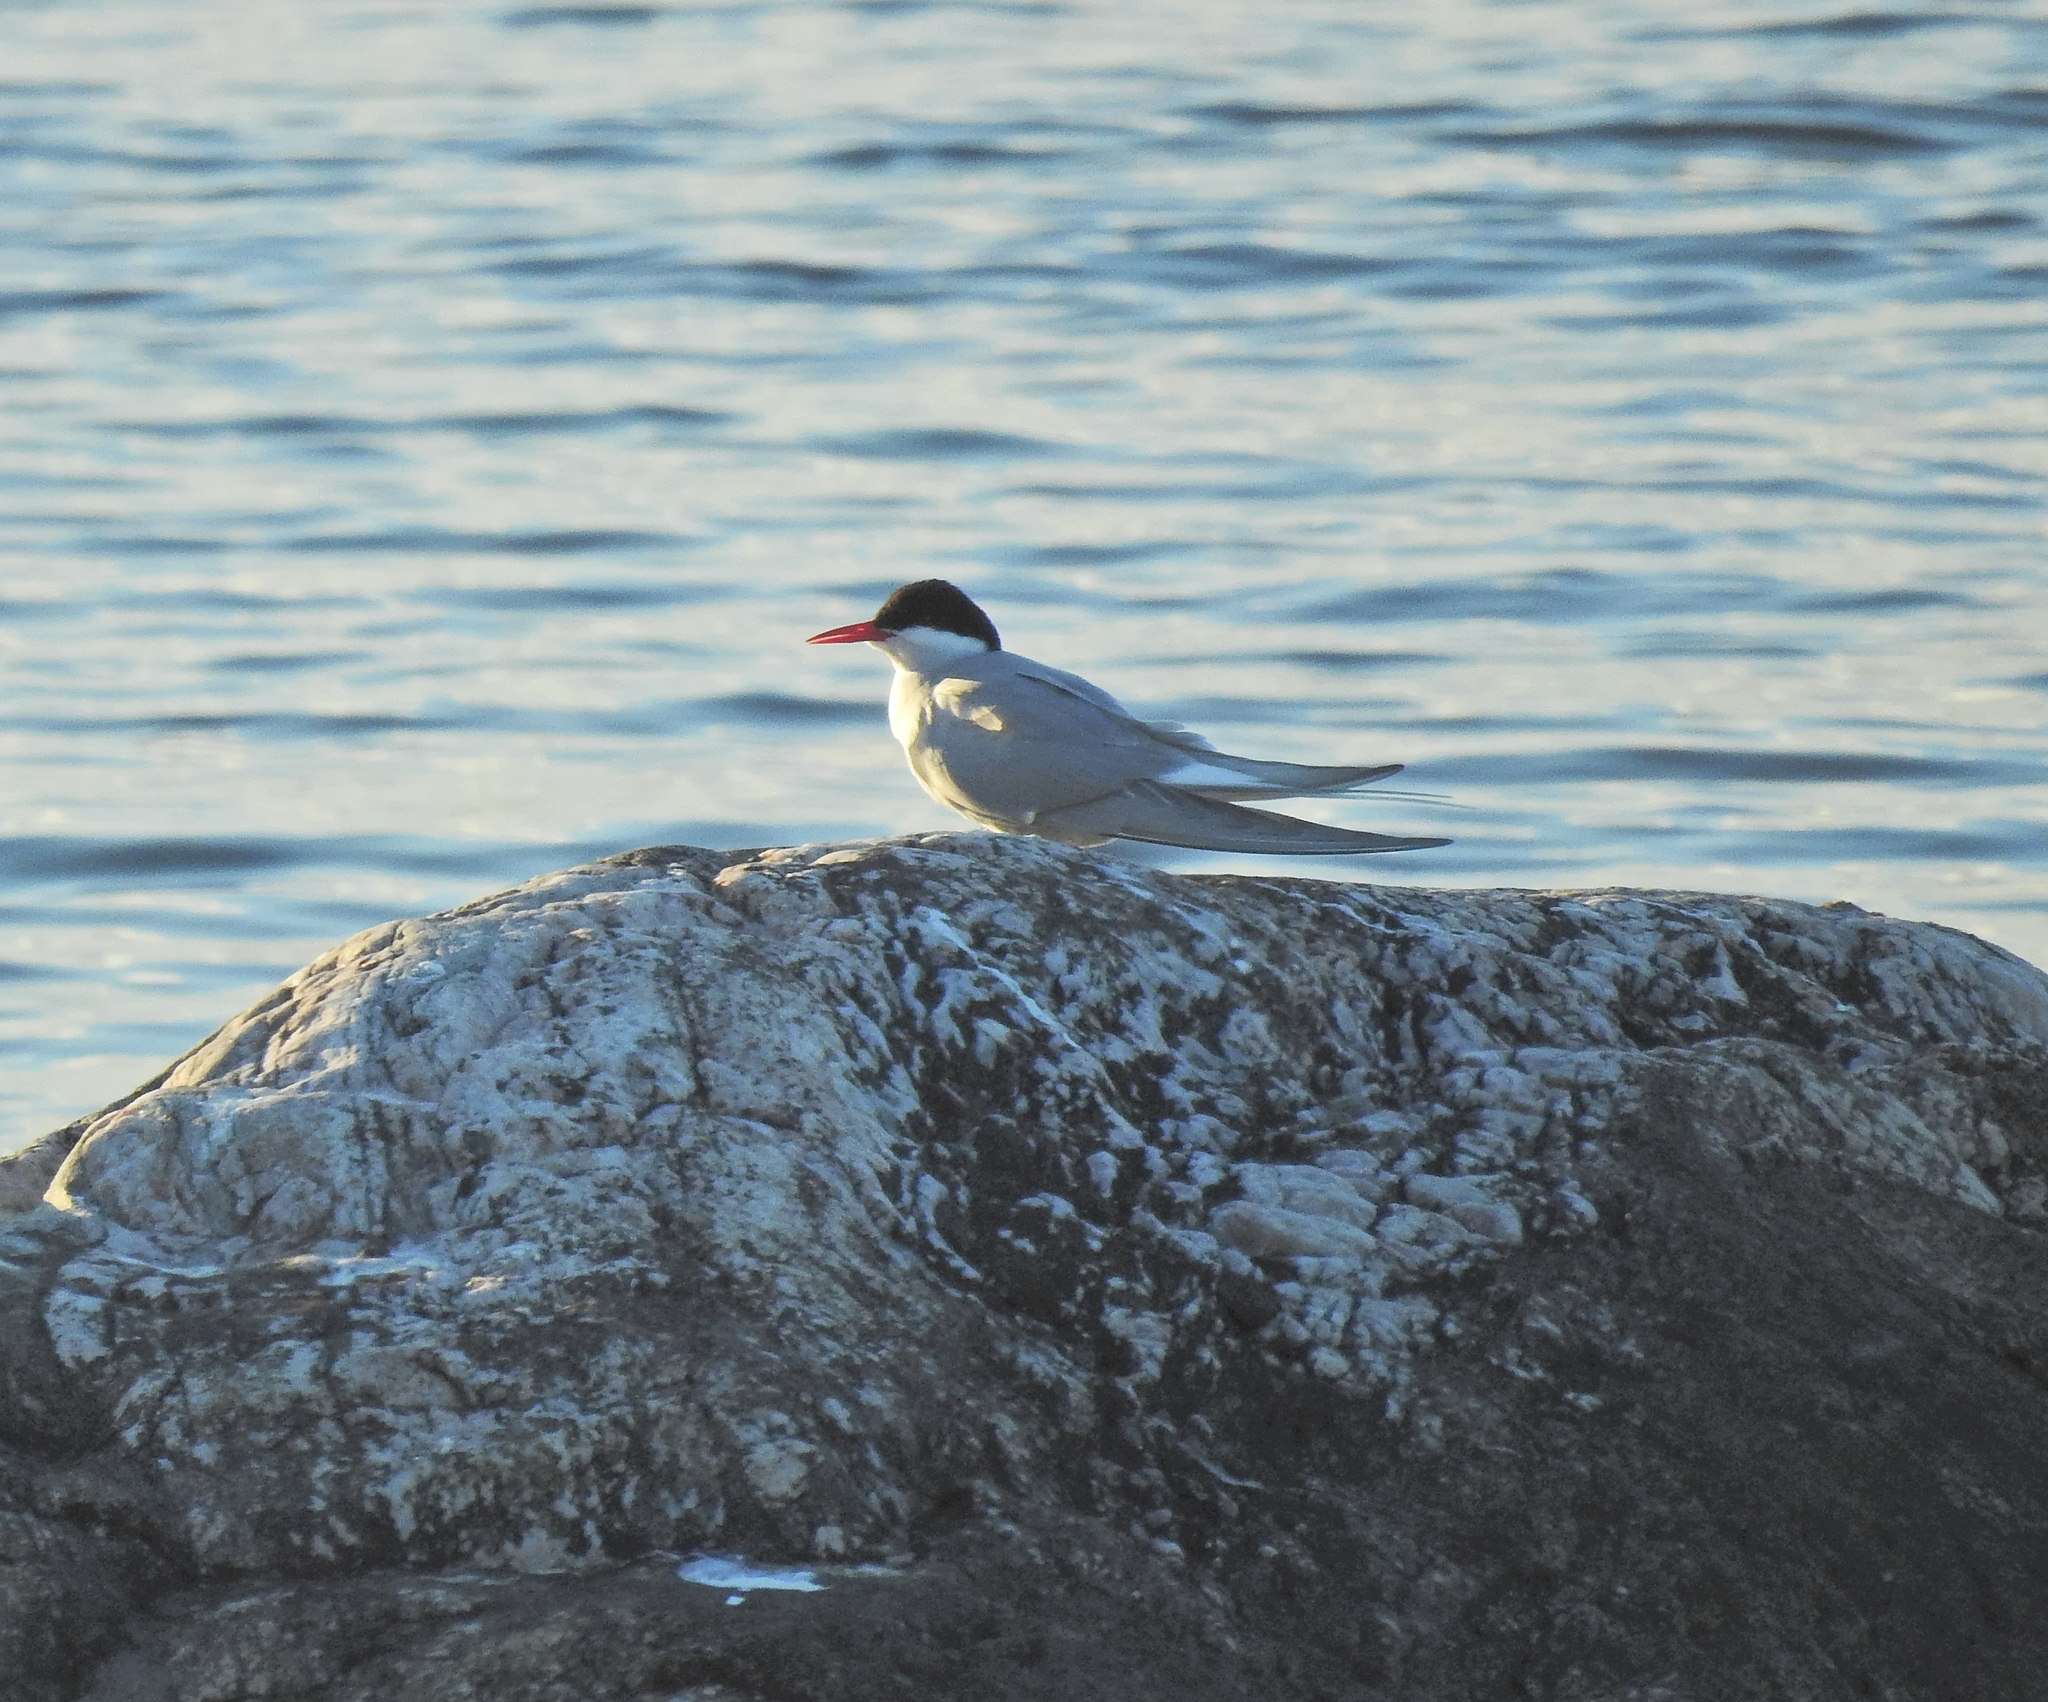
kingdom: Animalia
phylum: Chordata
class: Aves
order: Charadriiformes
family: Laridae
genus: Sterna
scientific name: Sterna paradisaea
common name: Arctic tern
